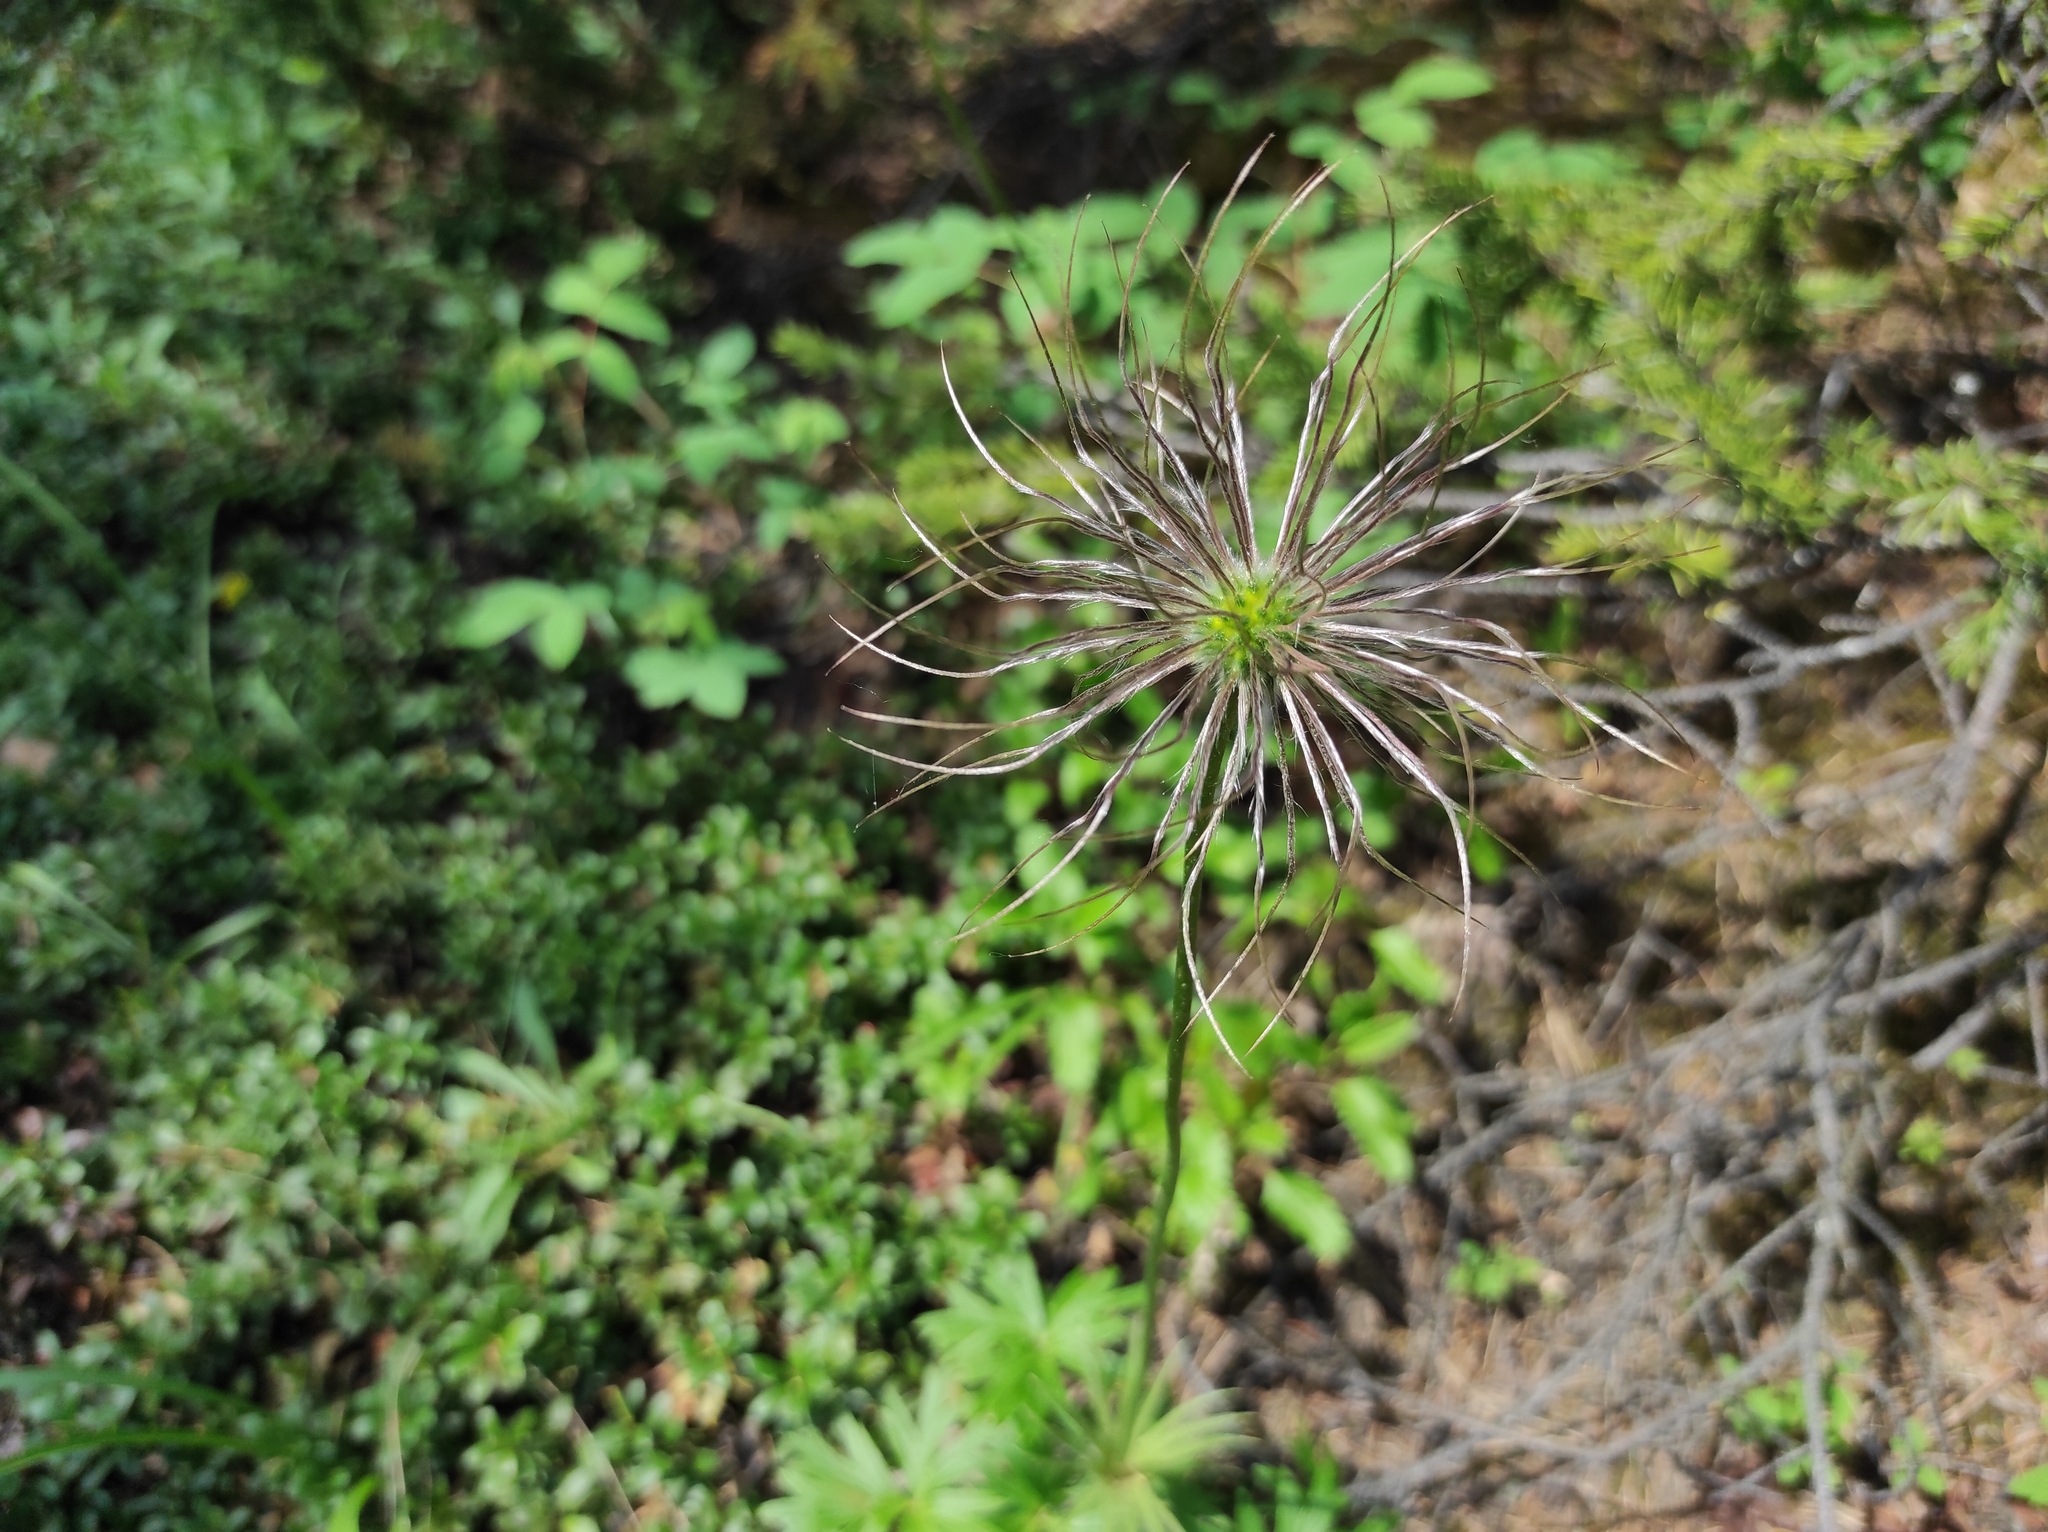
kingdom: Plantae
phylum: Tracheophyta
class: Magnoliopsida
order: Ranunculales
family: Ranunculaceae
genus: Pulsatilla
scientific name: Pulsatilla patens
